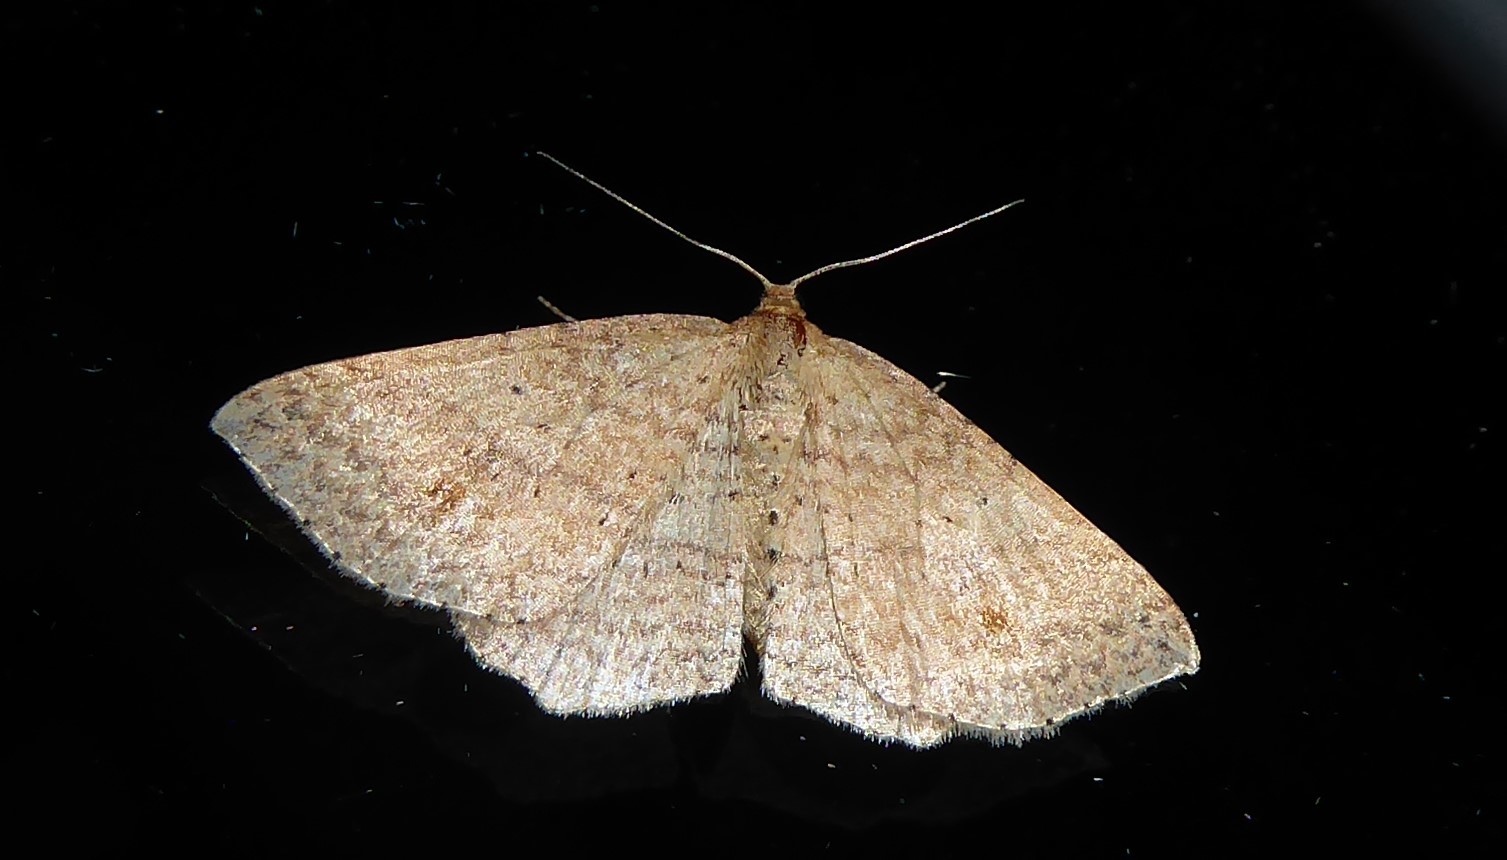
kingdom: Animalia
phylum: Arthropoda
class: Insecta
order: Lepidoptera
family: Geometridae
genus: Epicyme
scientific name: Epicyme rubropunctaria
